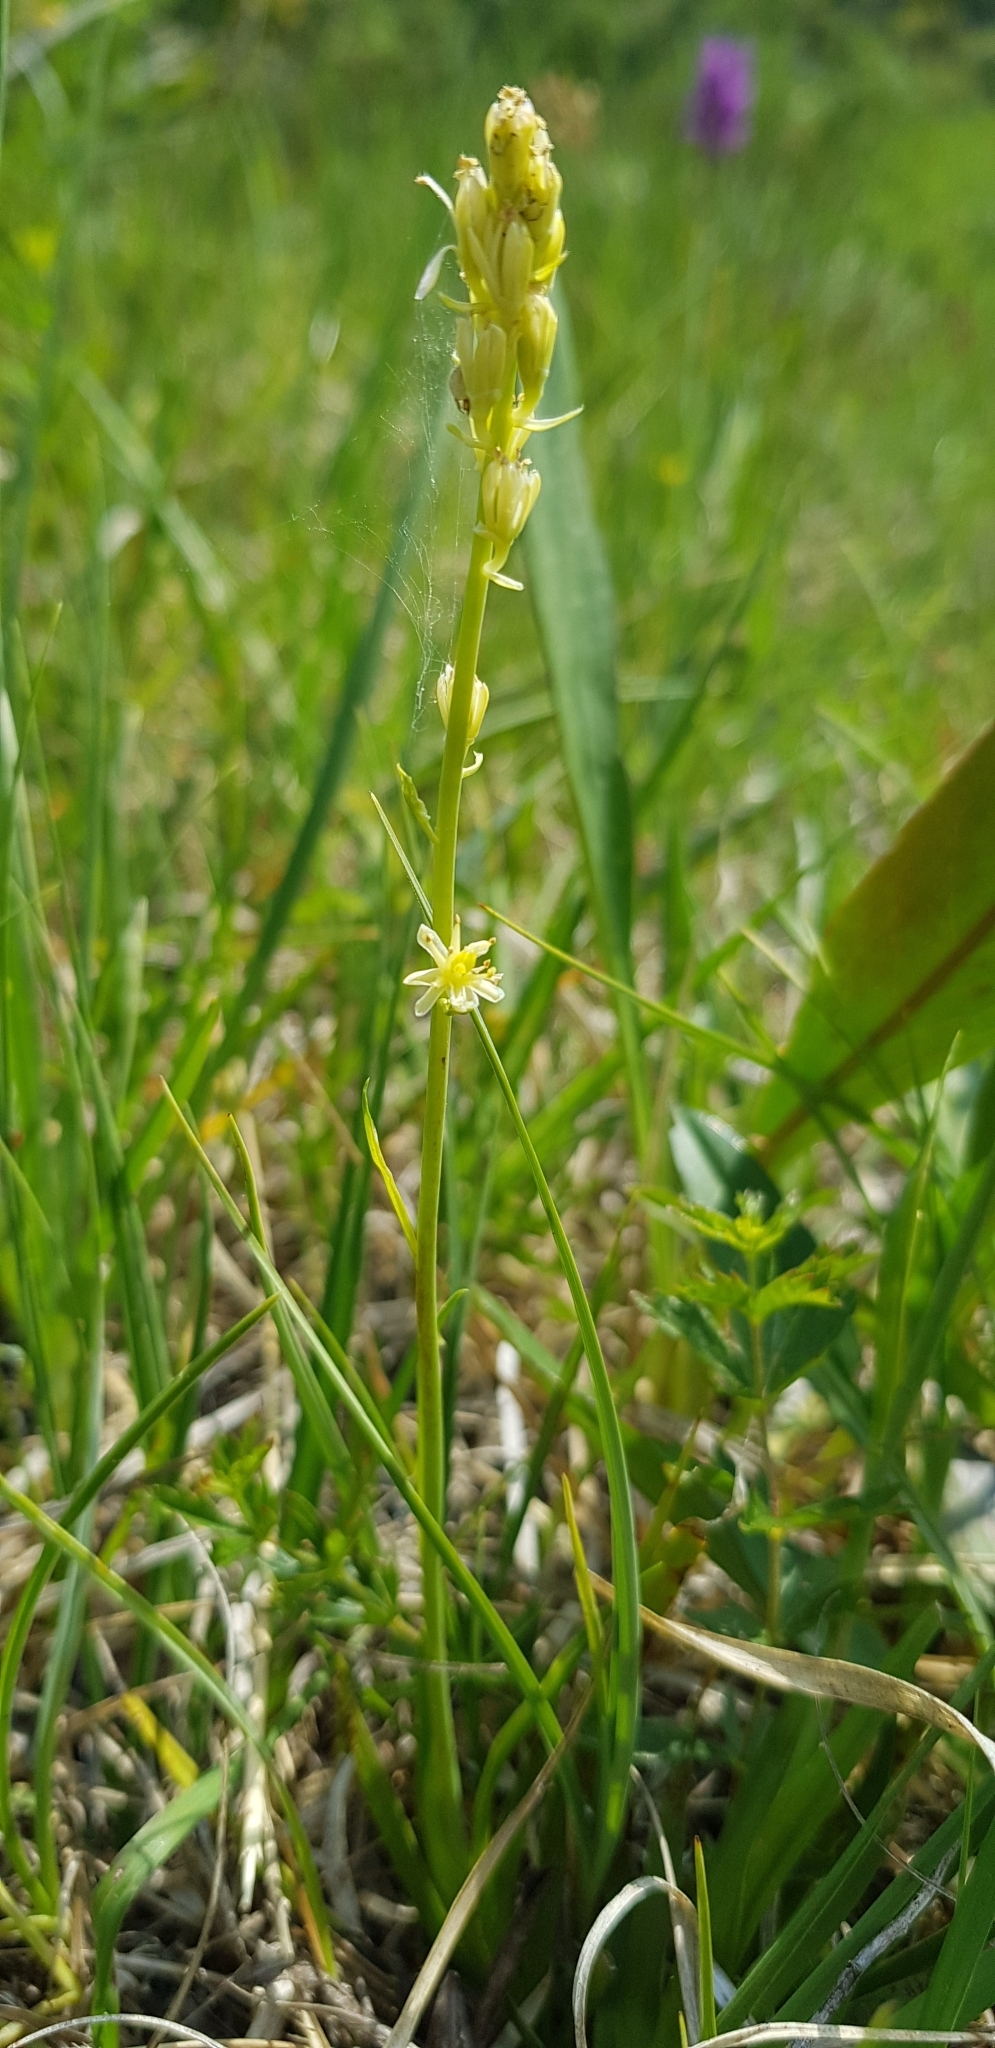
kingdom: Plantae
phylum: Tracheophyta
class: Liliopsida
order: Alismatales
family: Tofieldiaceae
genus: Tofieldia
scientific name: Tofieldia calyculata
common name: German-asphodel
